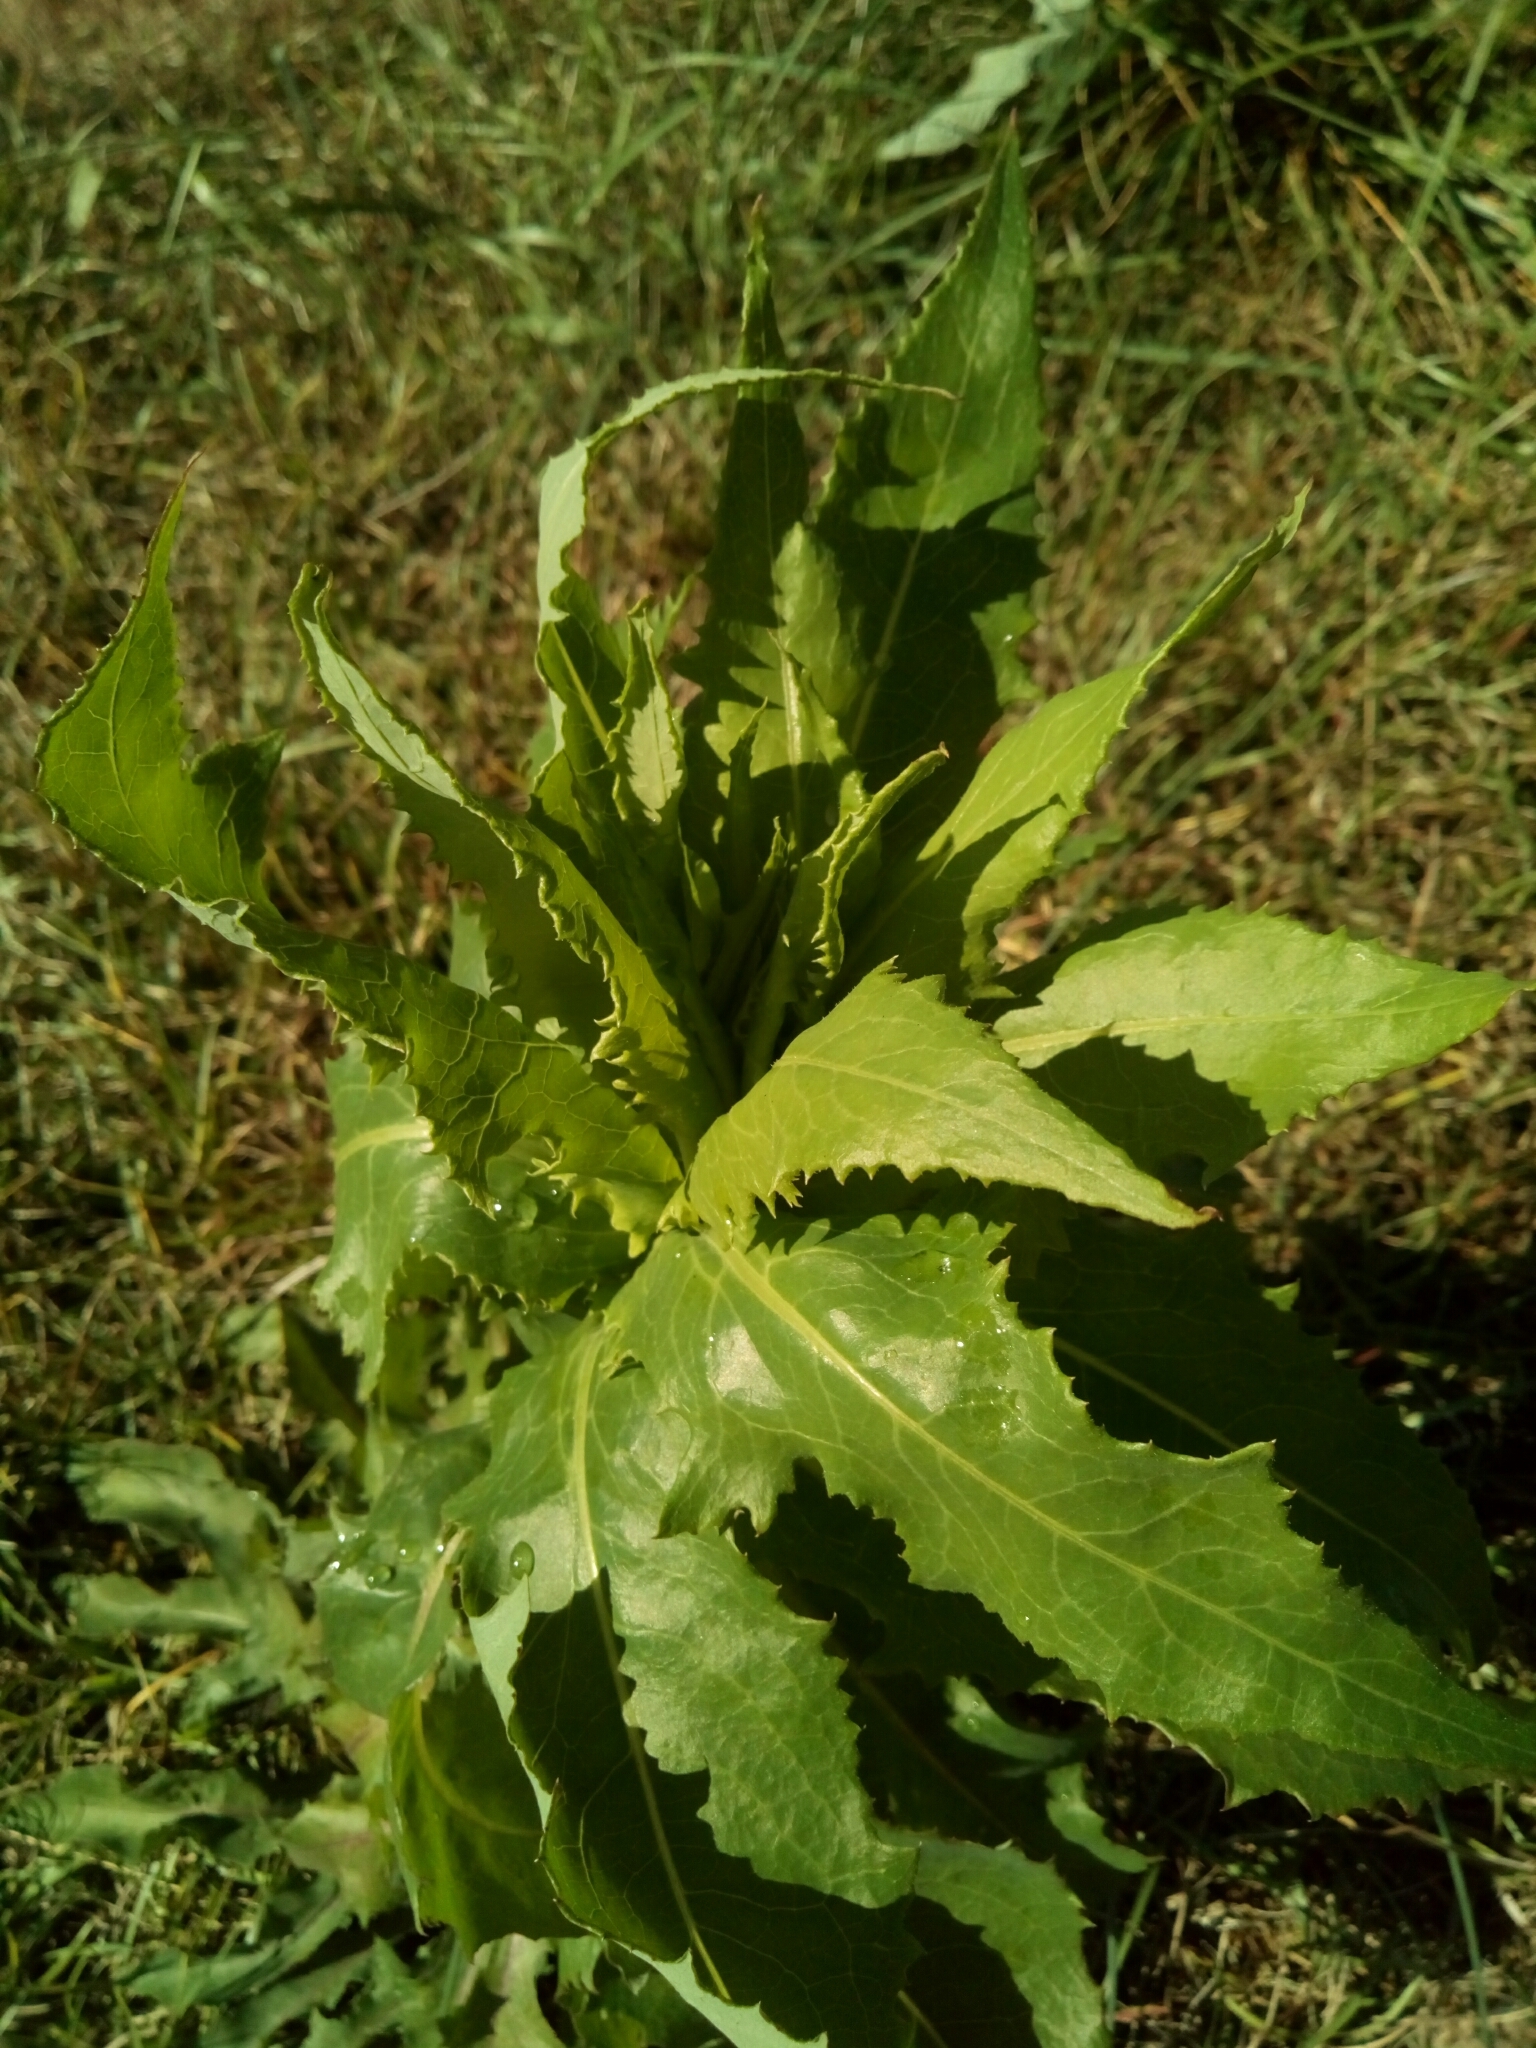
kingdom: Plantae
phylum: Tracheophyta
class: Magnoliopsida
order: Asterales
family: Asteraceae
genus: Erechtites
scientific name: Erechtites hieraciifolius
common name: American burnweed
